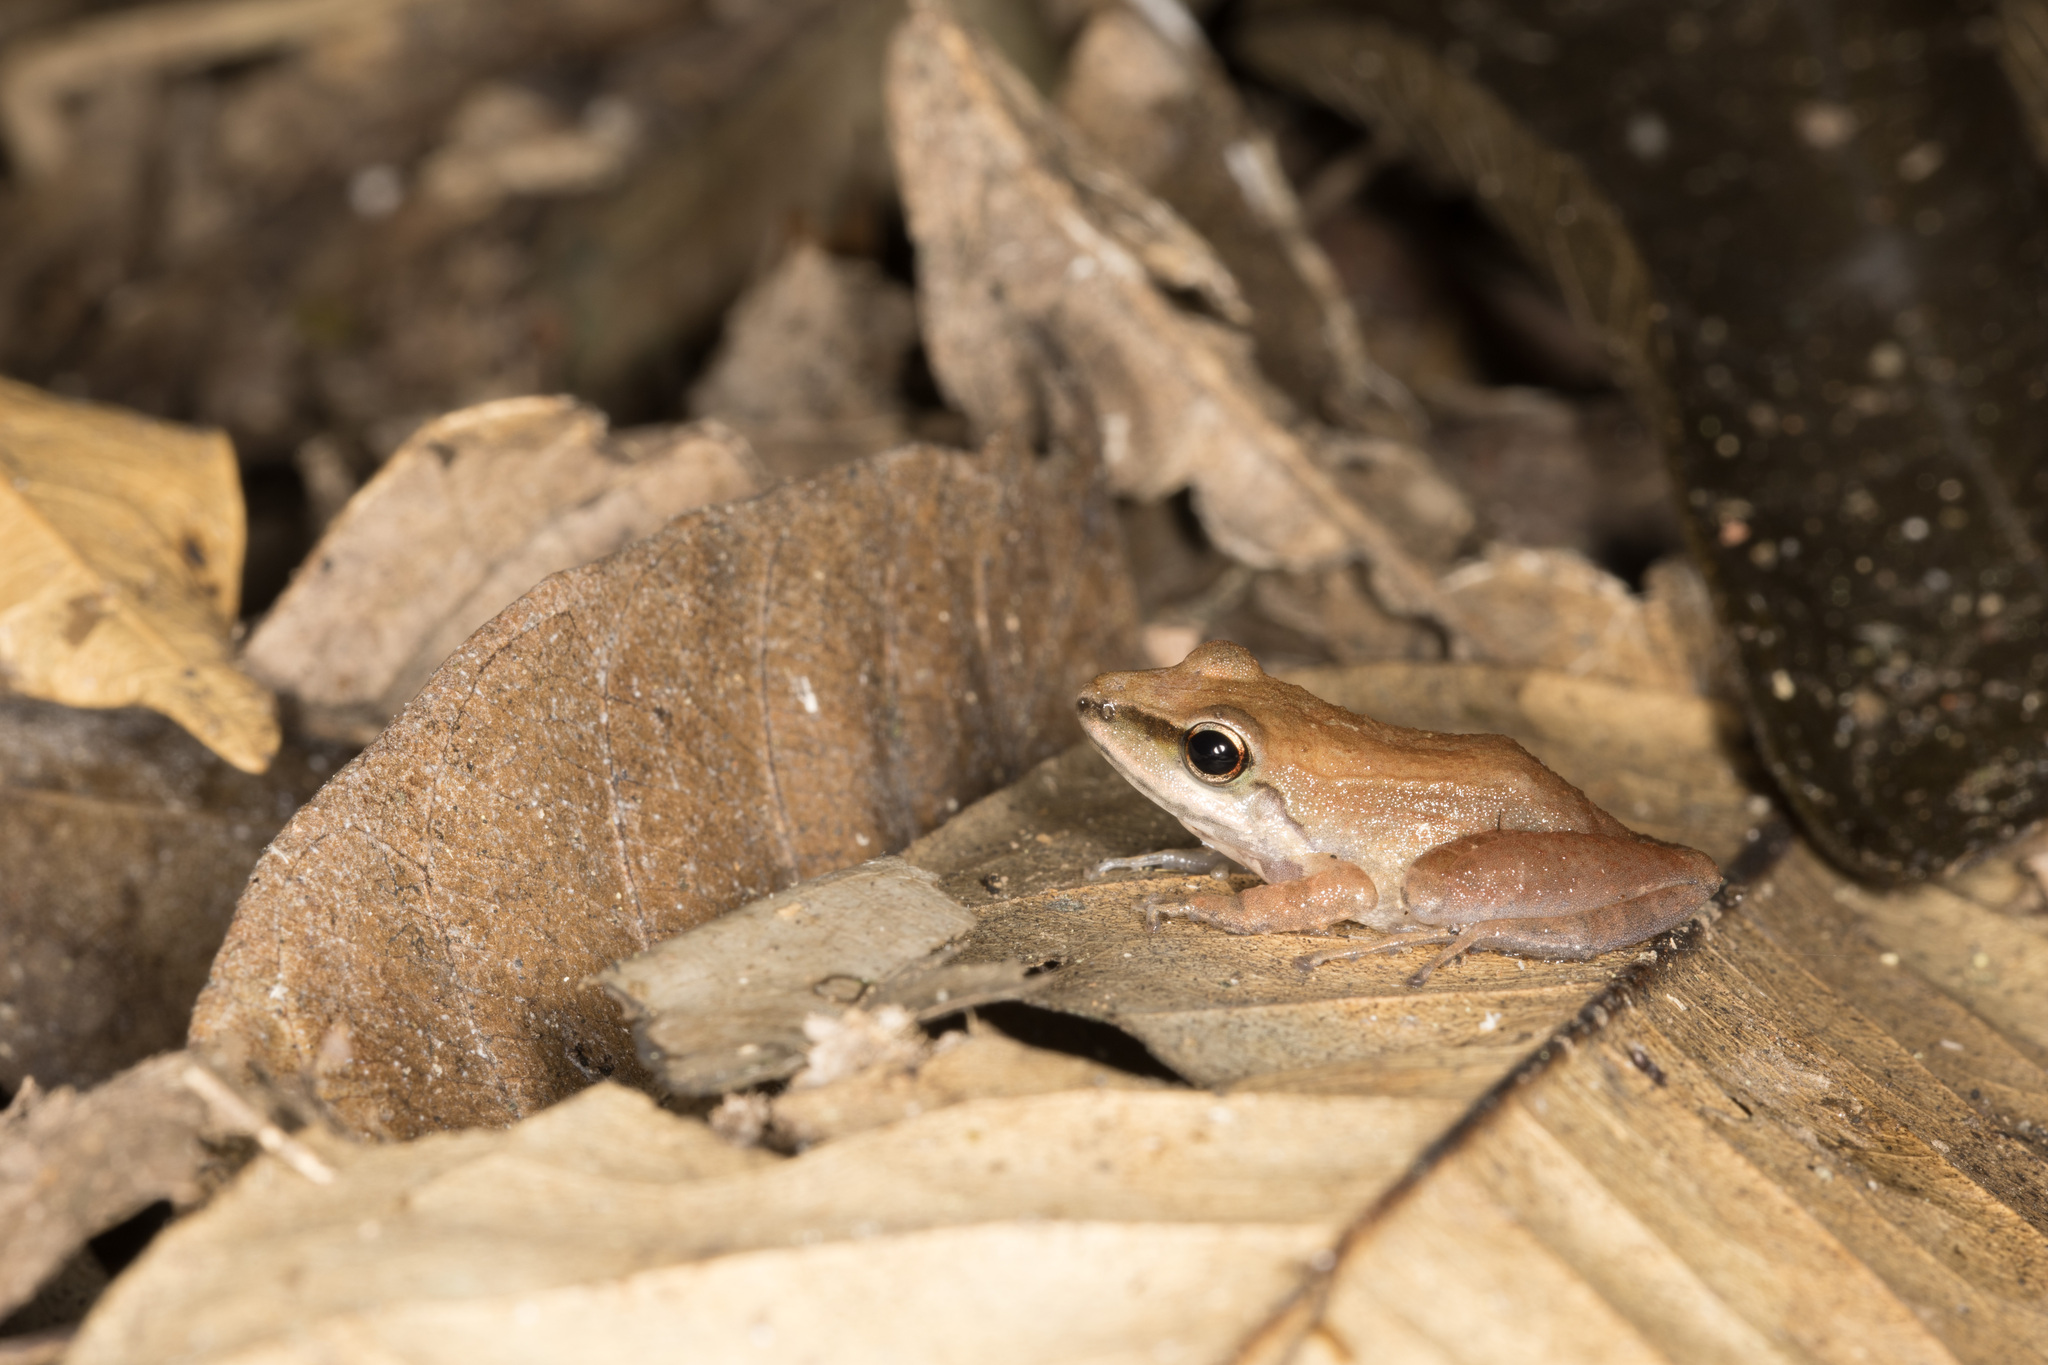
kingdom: Animalia
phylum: Chordata
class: Amphibia
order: Anura
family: Craugastoridae
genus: Pristimantis
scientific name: Pristimantis toftae
